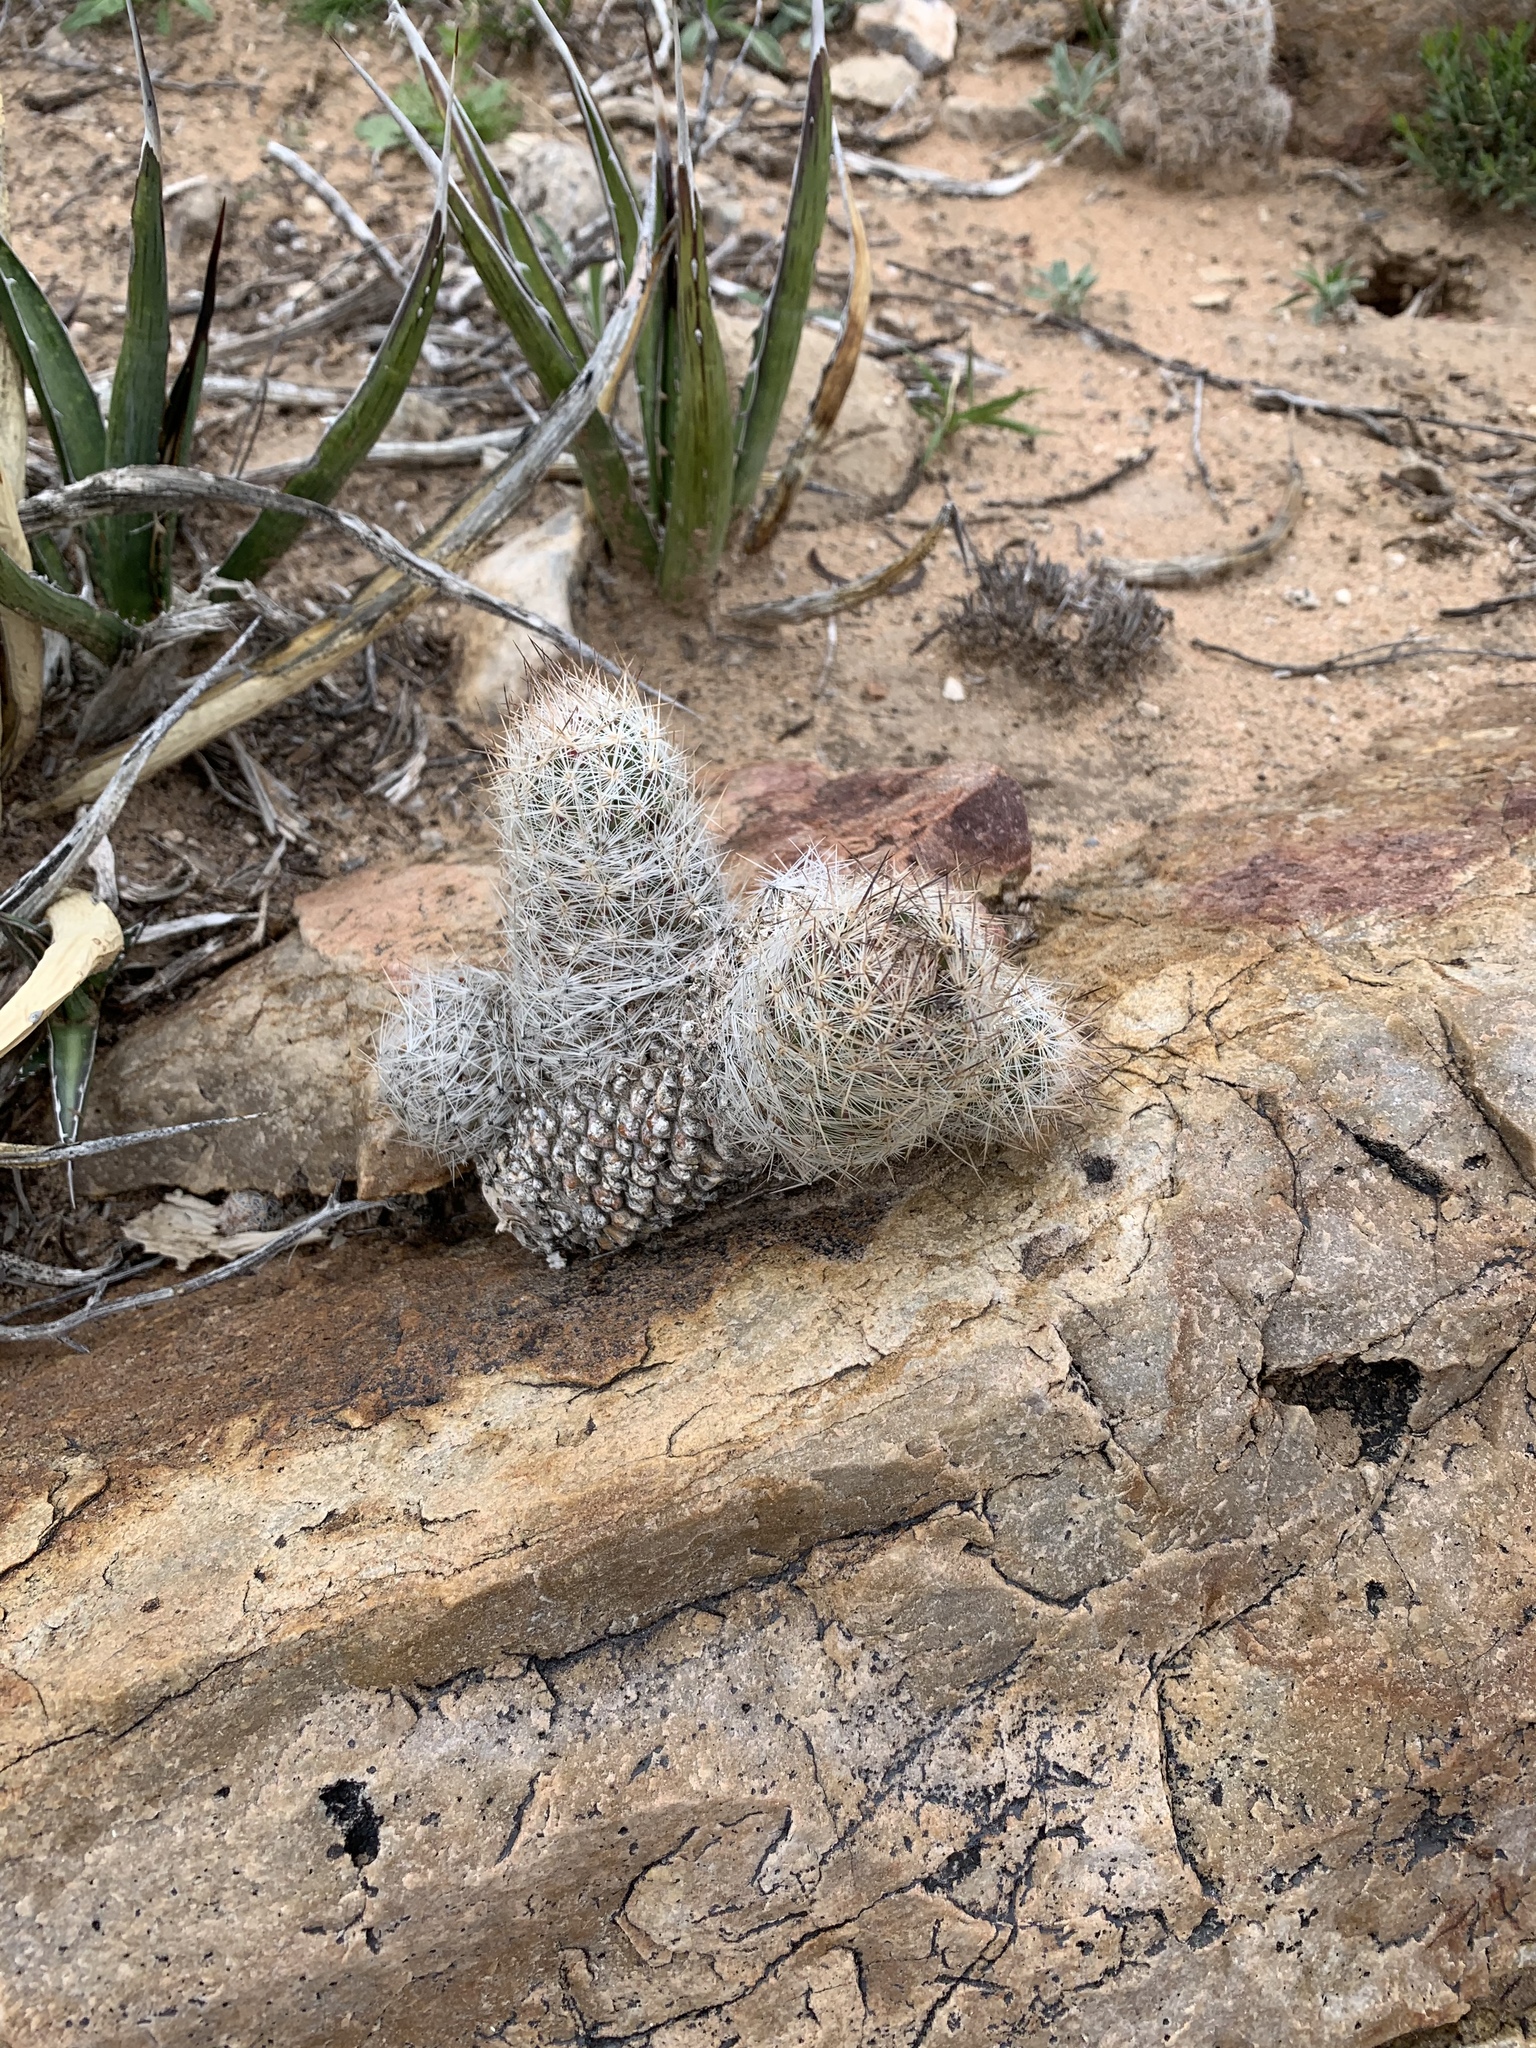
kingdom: Plantae
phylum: Tracheophyta
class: Magnoliopsida
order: Caryophyllales
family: Cactaceae
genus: Pelecyphora
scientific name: Pelecyphora tuberculosa
